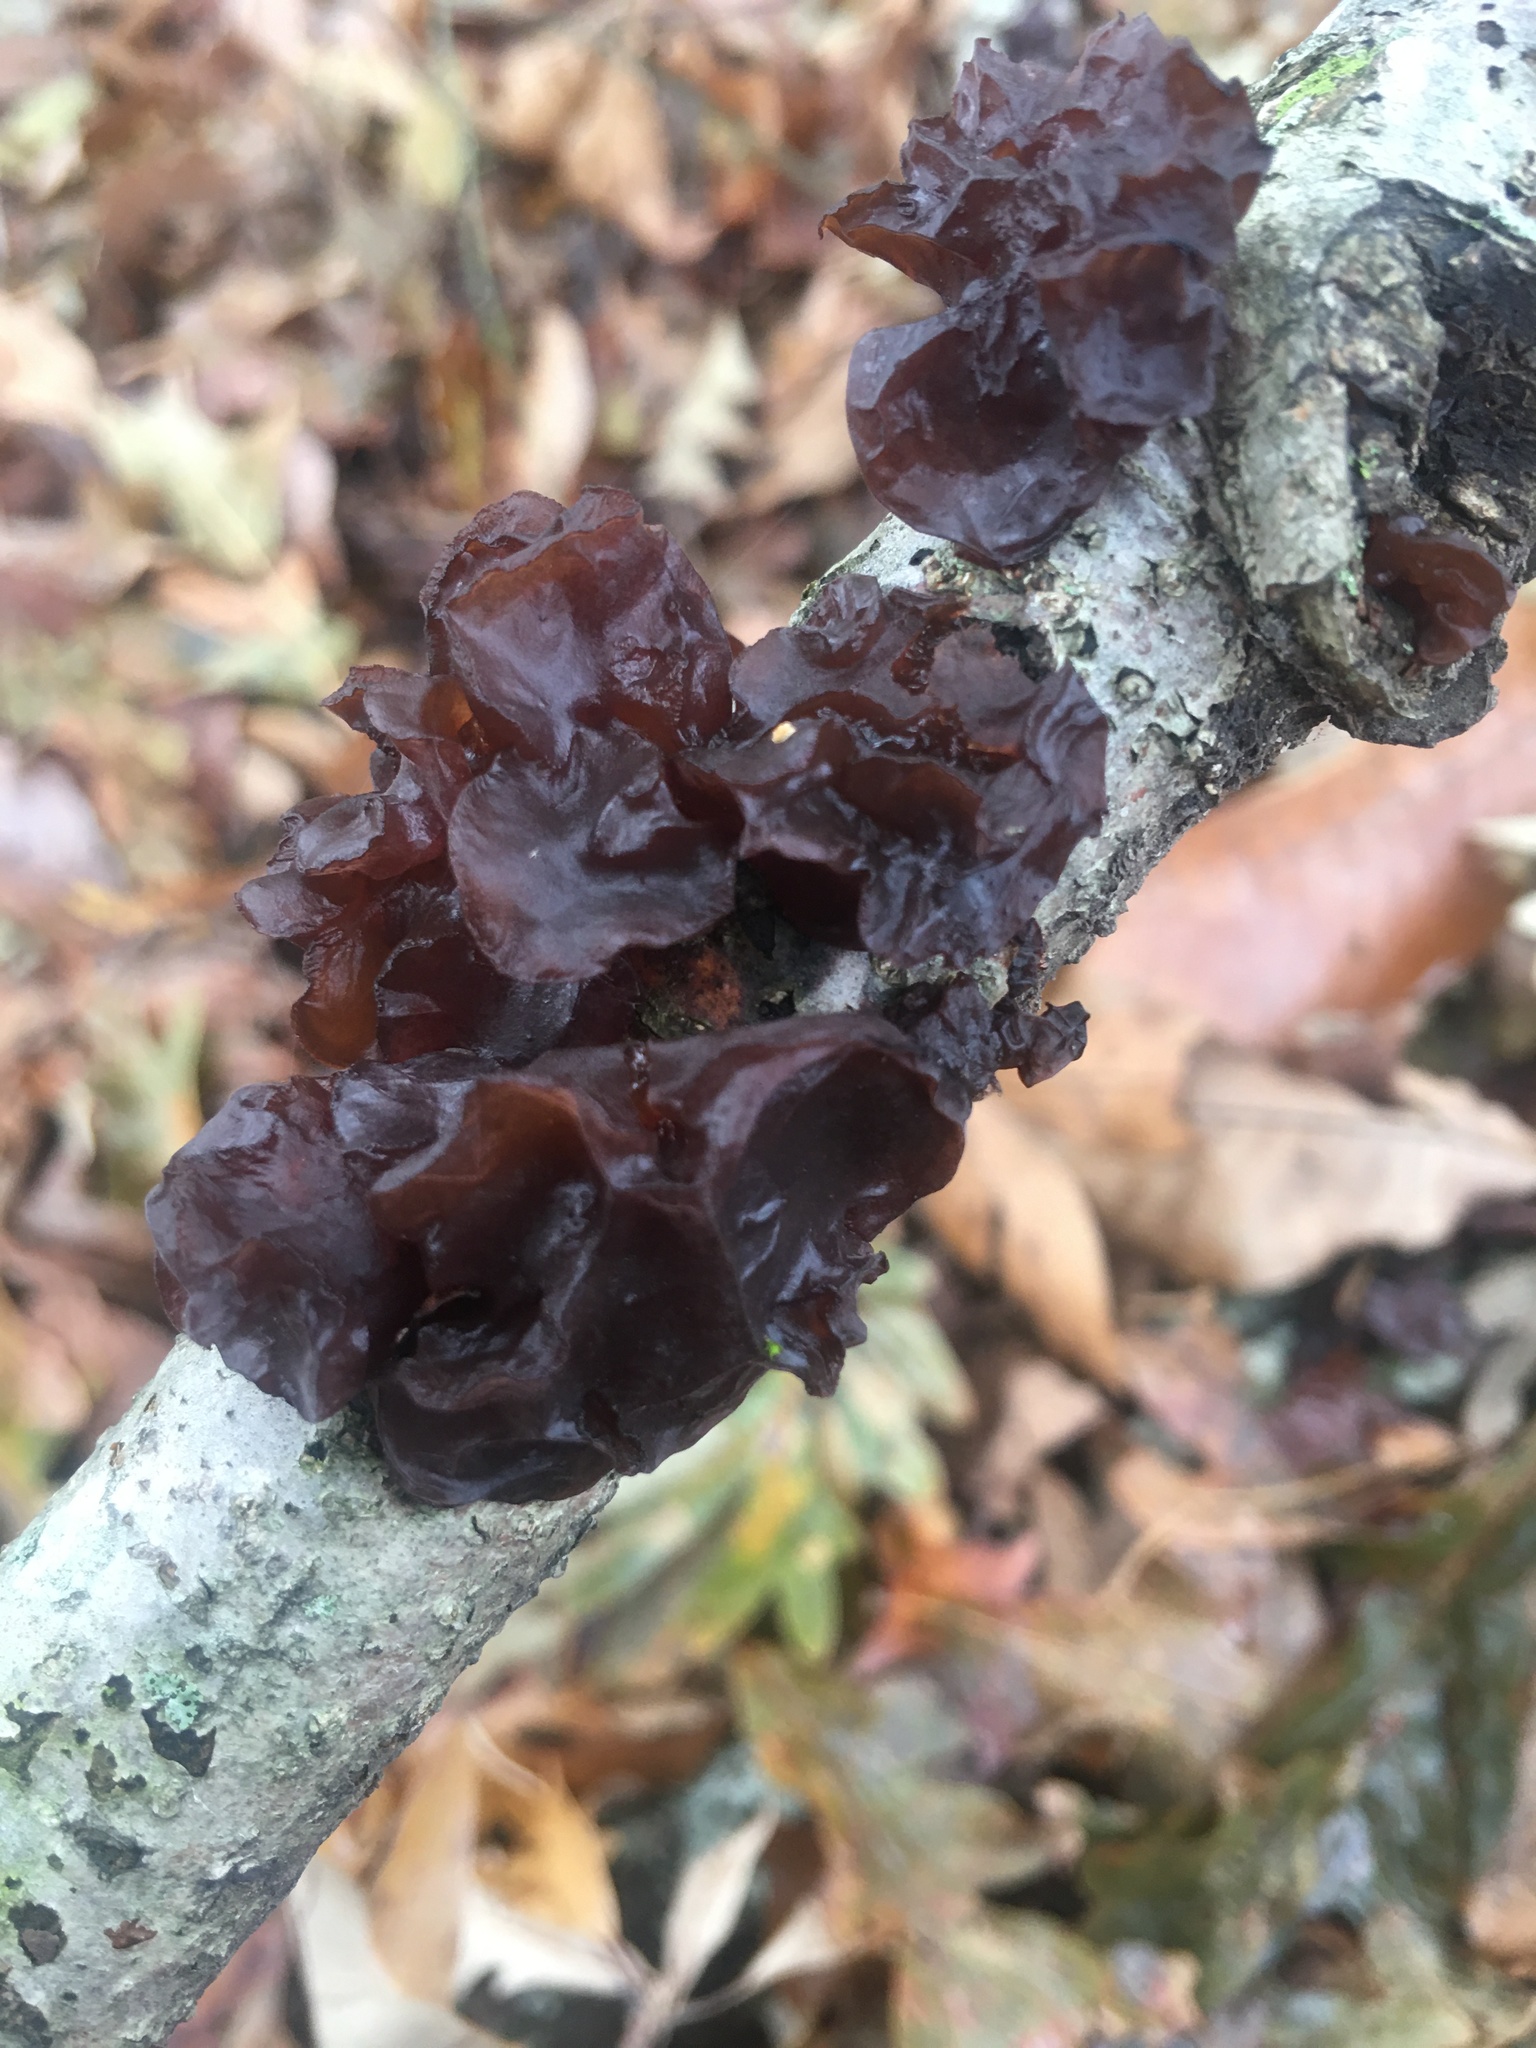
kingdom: Fungi
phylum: Basidiomycota
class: Agaricomycetes
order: Auriculariales
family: Auriculariaceae
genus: Exidia
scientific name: Exidia
